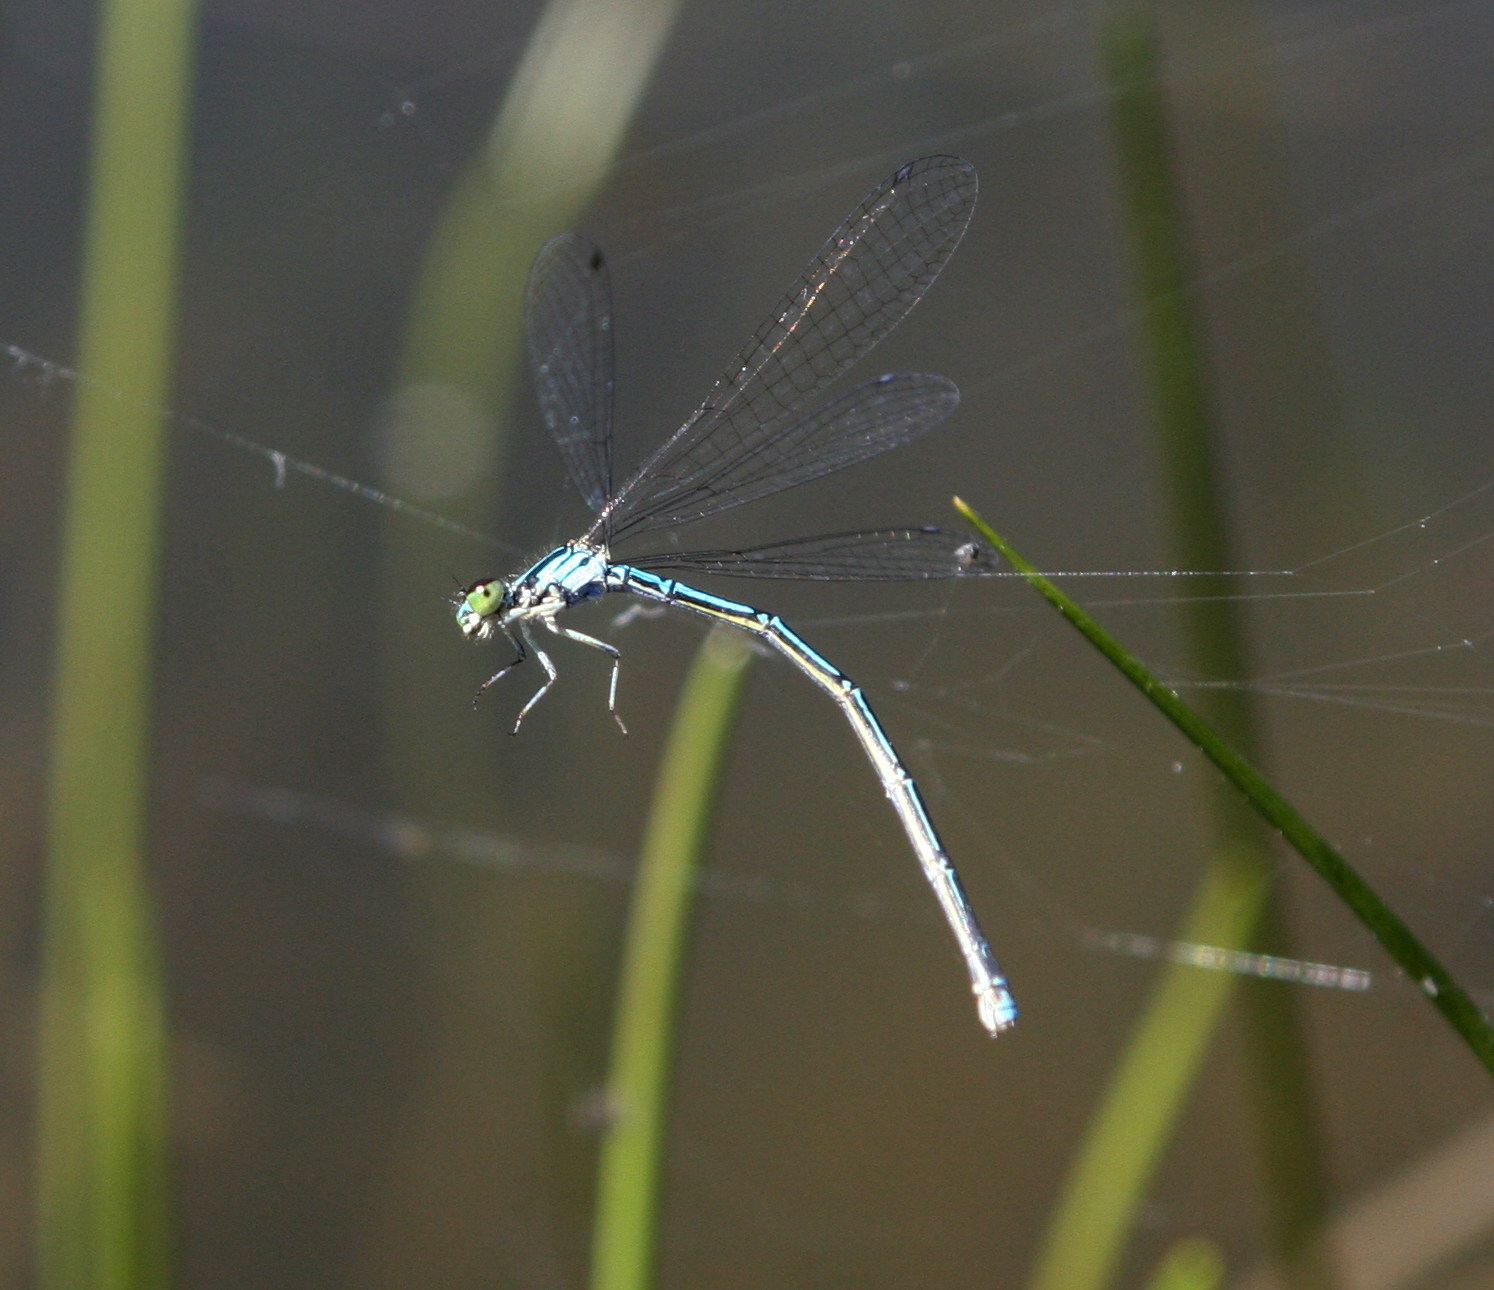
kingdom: Animalia
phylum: Arthropoda
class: Insecta
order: Odonata
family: Coenagrionidae
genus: Coenagrion
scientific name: Coenagrion johanssoni
